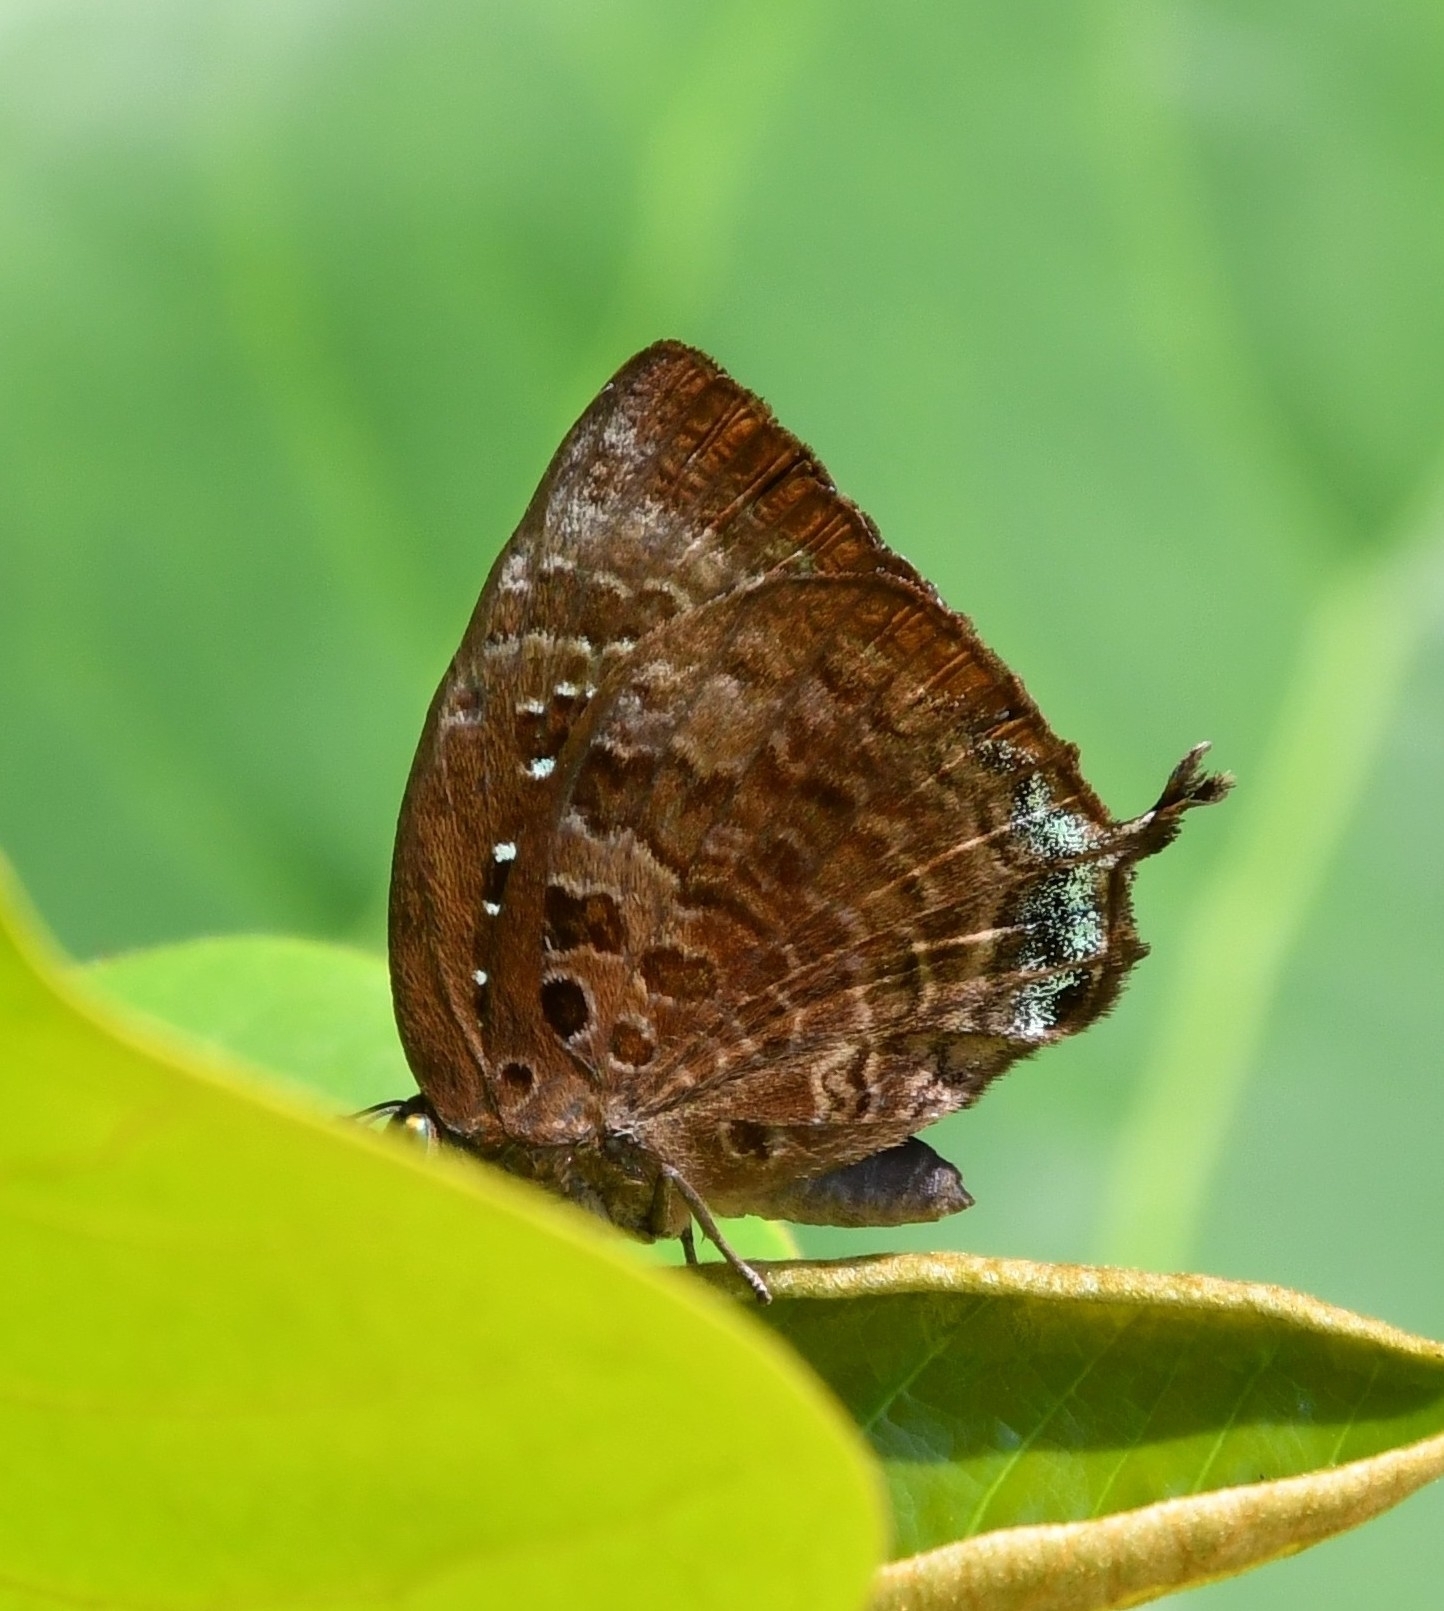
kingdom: Animalia
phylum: Arthropoda
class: Insecta
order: Lepidoptera
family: Lycaenidae
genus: Arhopala
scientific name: Arhopala centaurus
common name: Dull oak-blue
